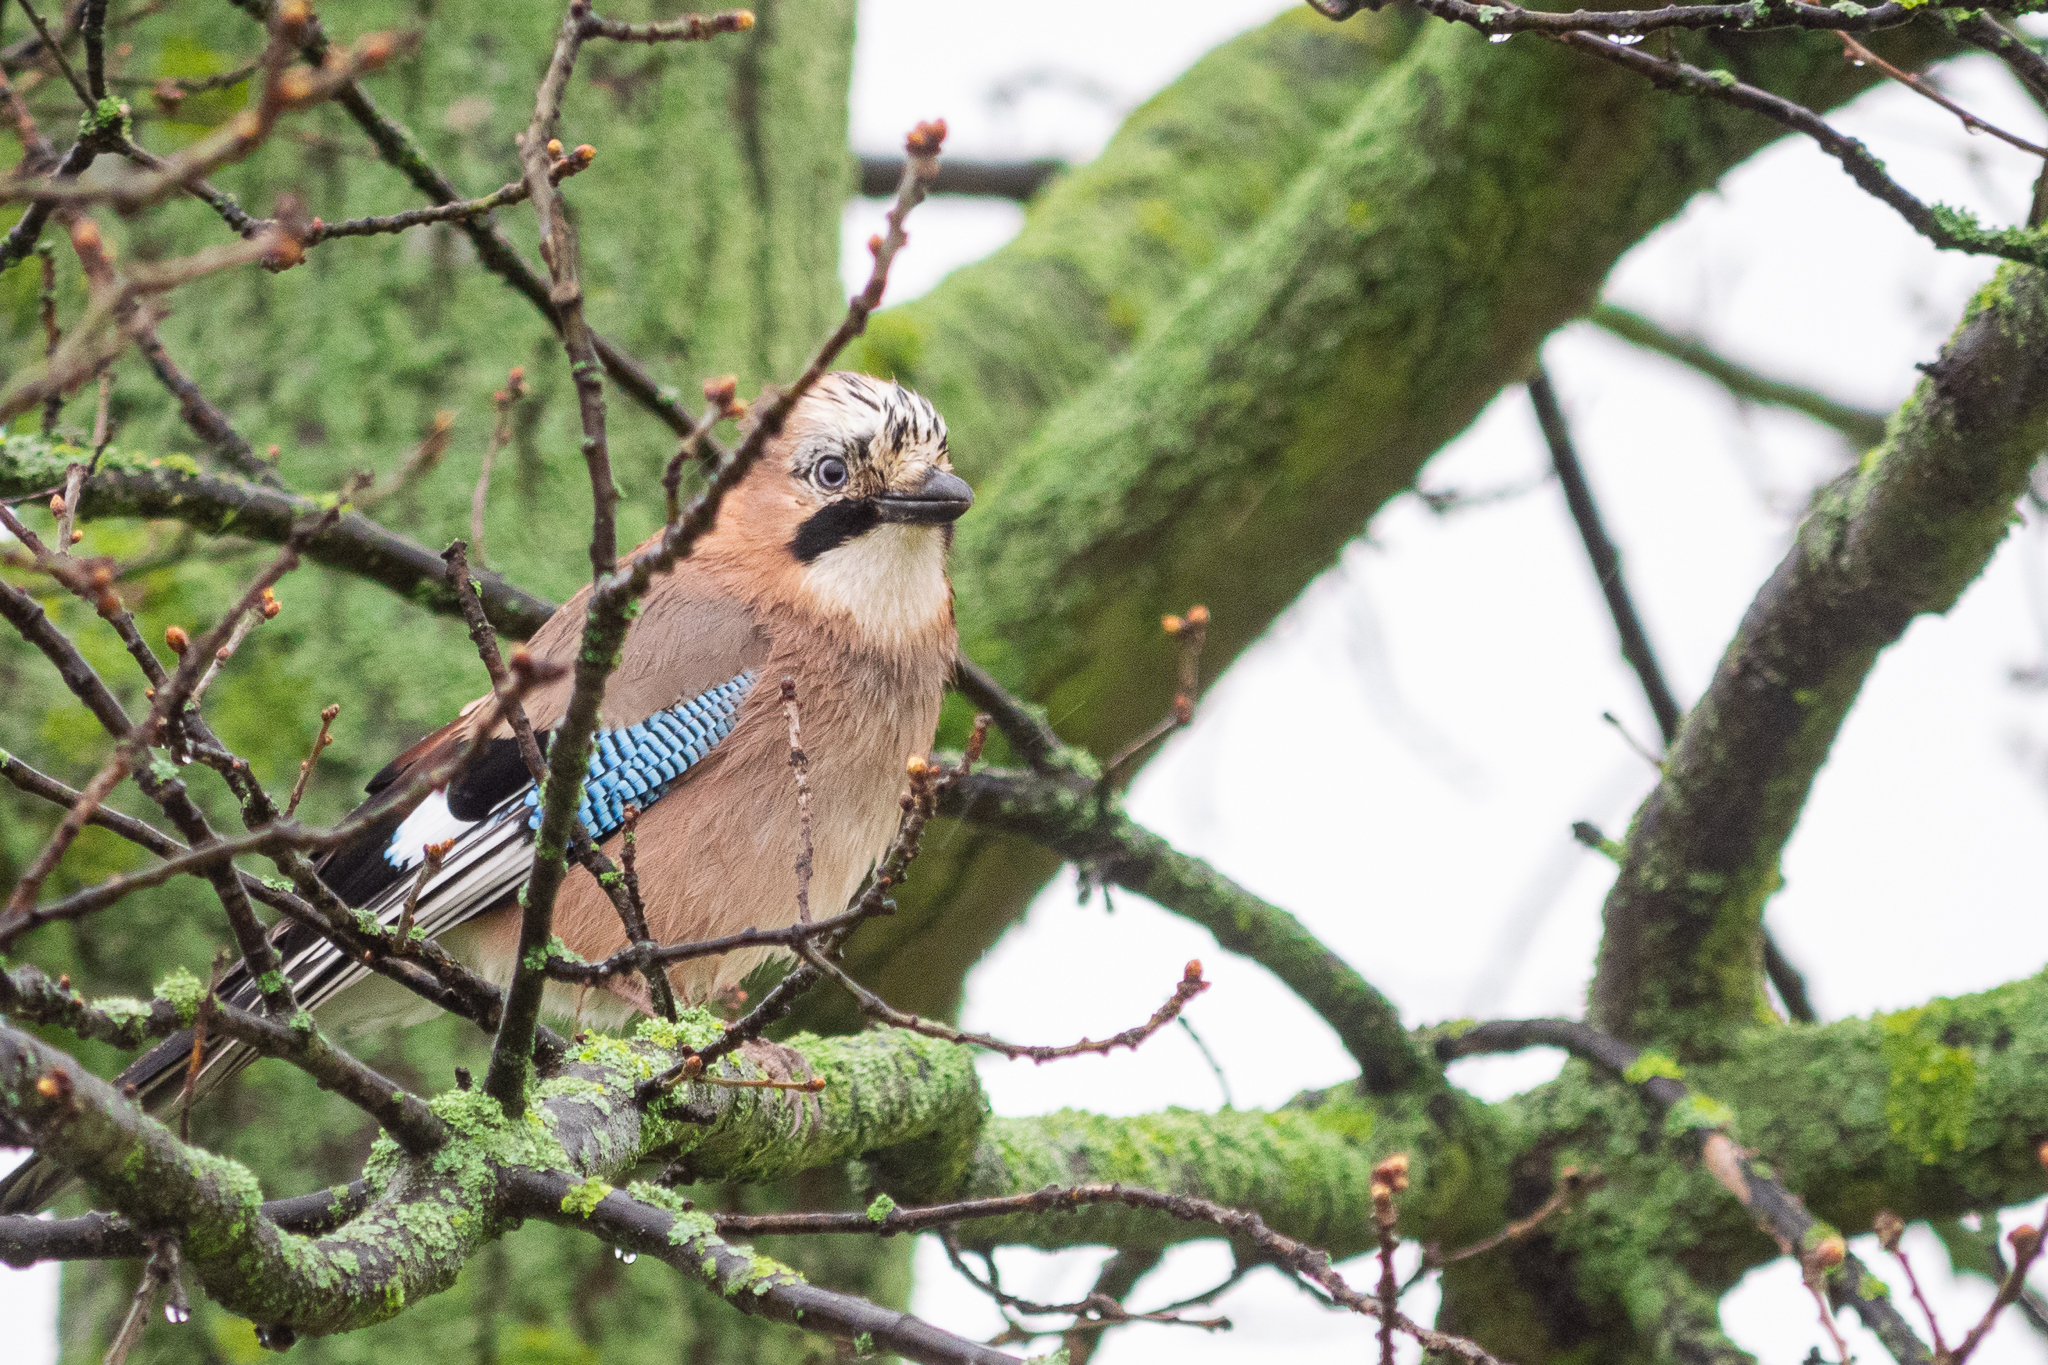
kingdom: Animalia
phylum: Chordata
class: Aves
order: Passeriformes
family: Corvidae
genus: Garrulus
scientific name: Garrulus glandarius
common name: Eurasian jay
